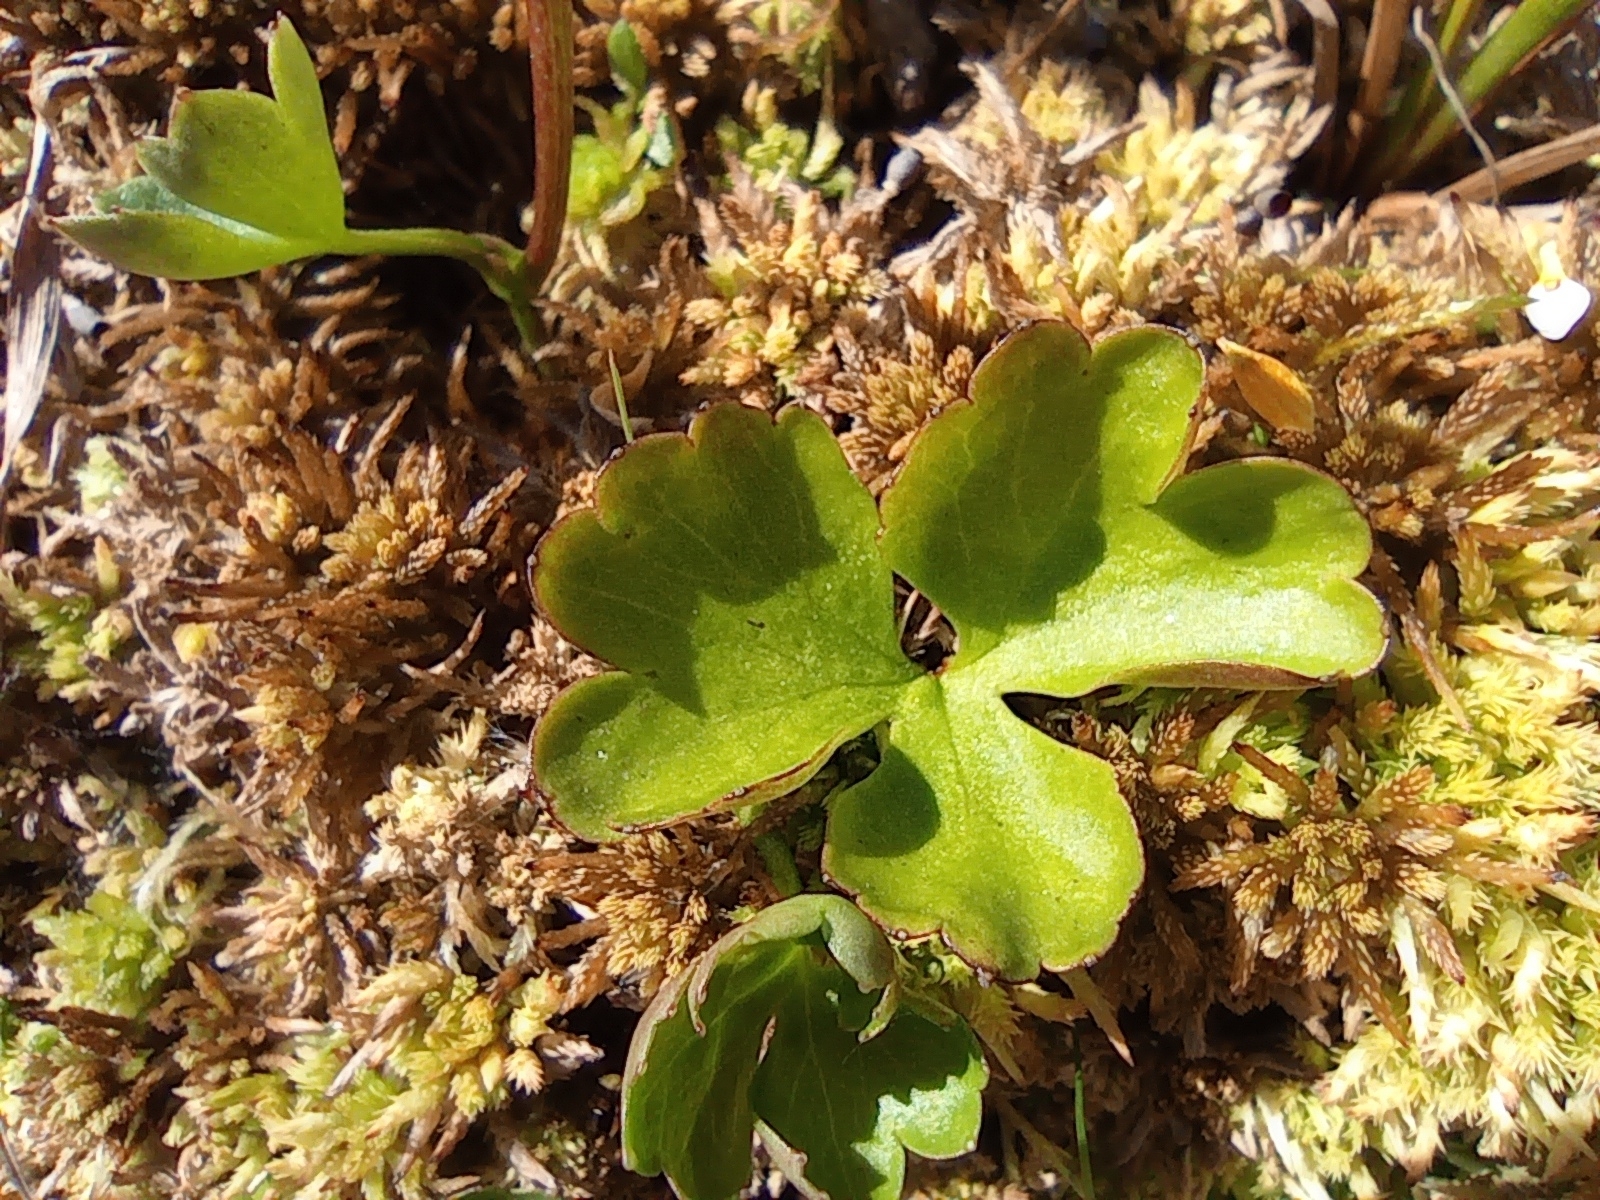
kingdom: Plantae
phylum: Tracheophyta
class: Magnoliopsida
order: Ranunculales
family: Ranunculaceae
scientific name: Ranunculaceae
